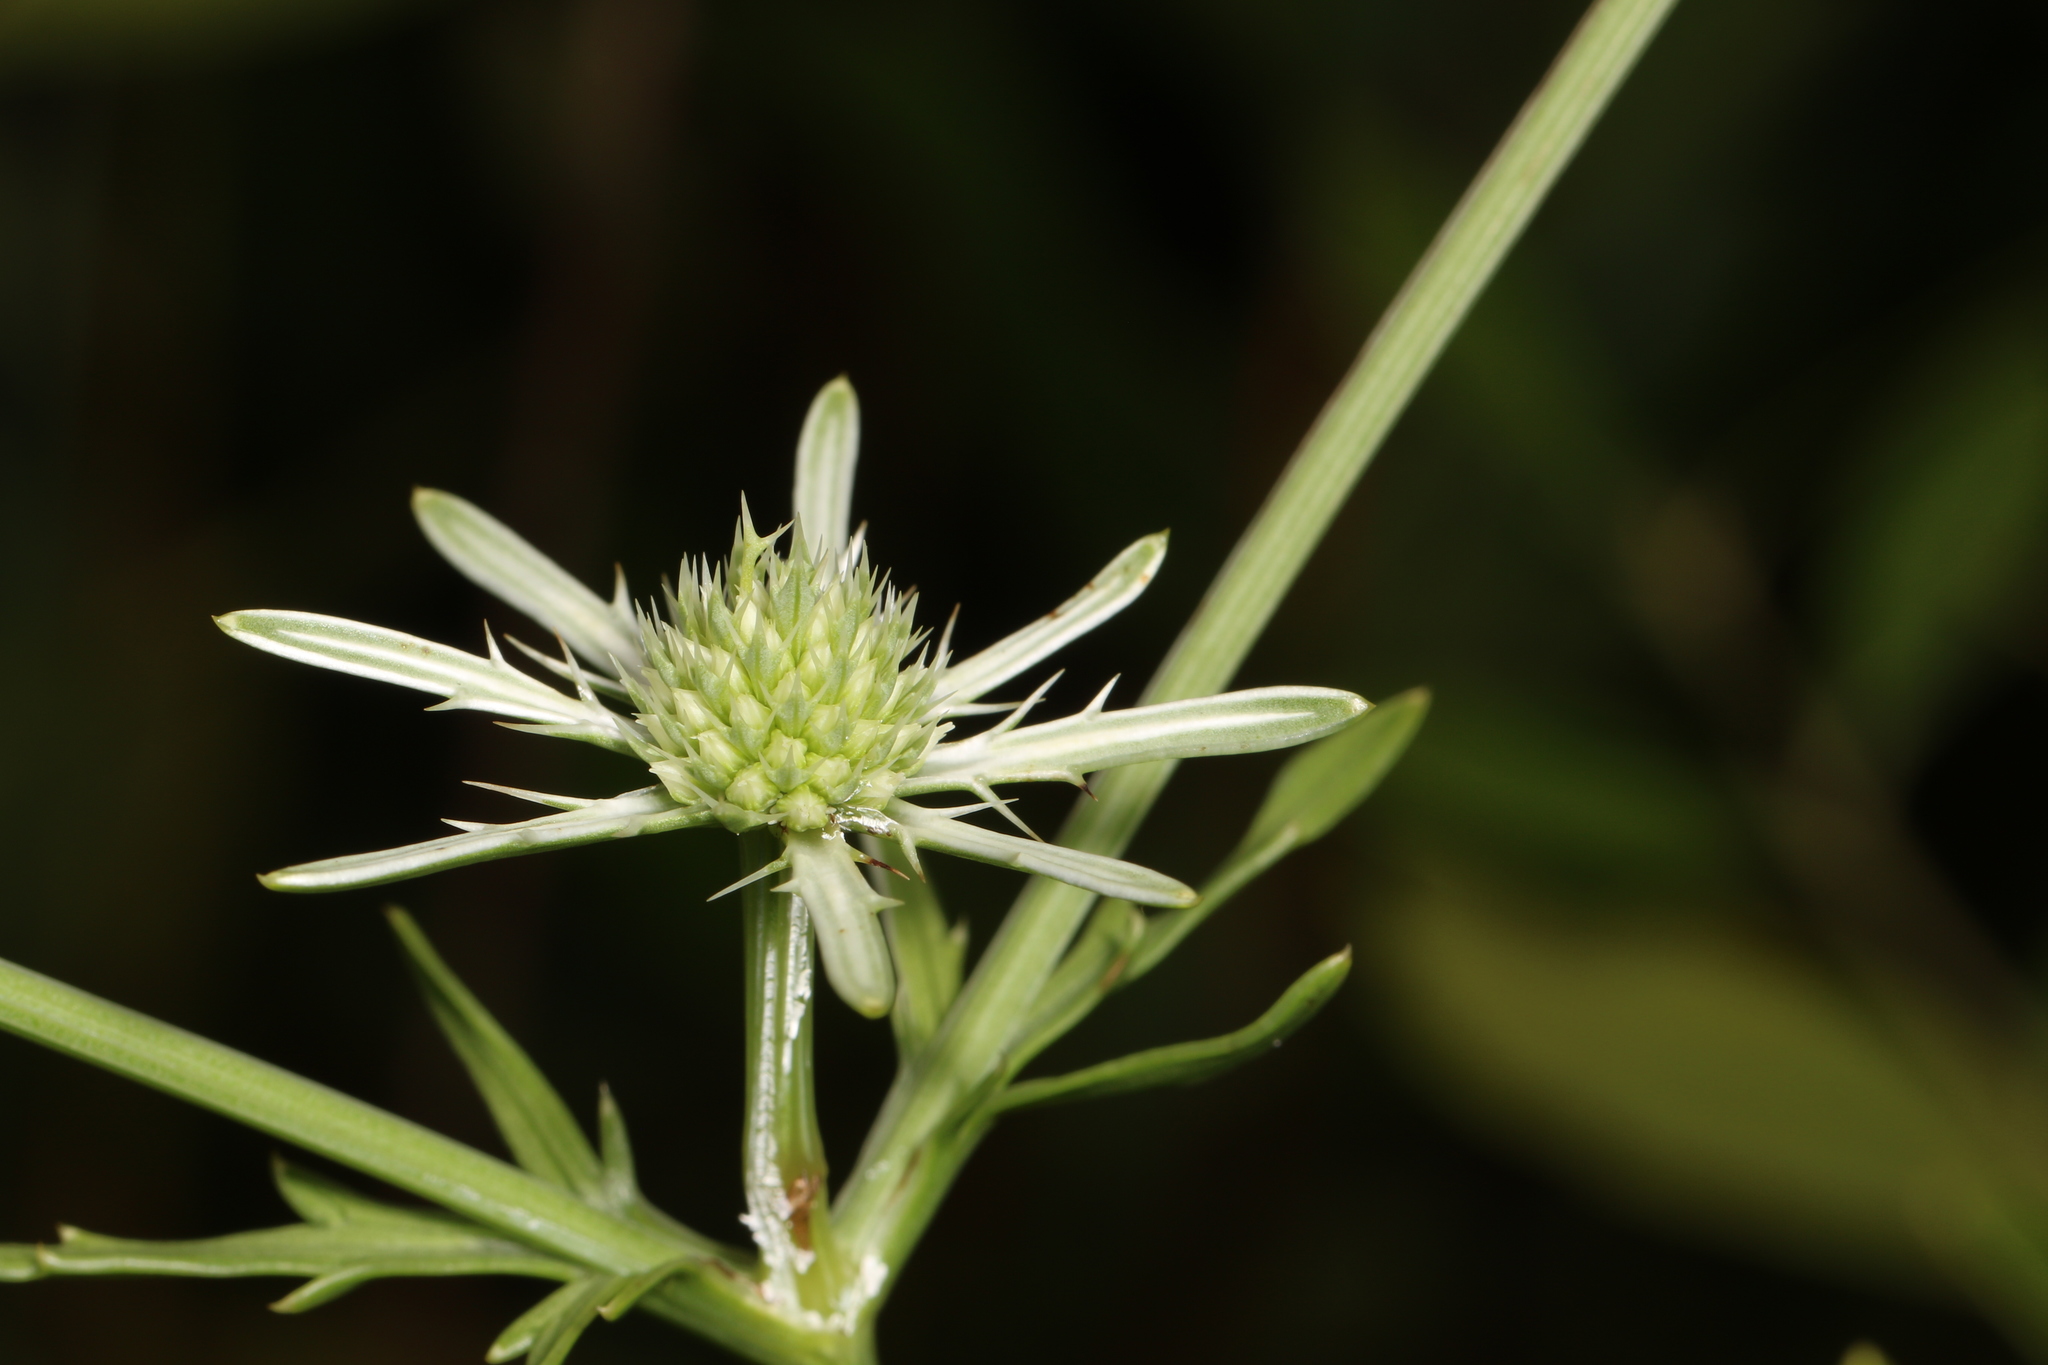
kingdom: Plantae
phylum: Tracheophyta
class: Magnoliopsida
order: Apiales
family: Apiaceae
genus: Eryngium
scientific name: Eryngium integrifolium
